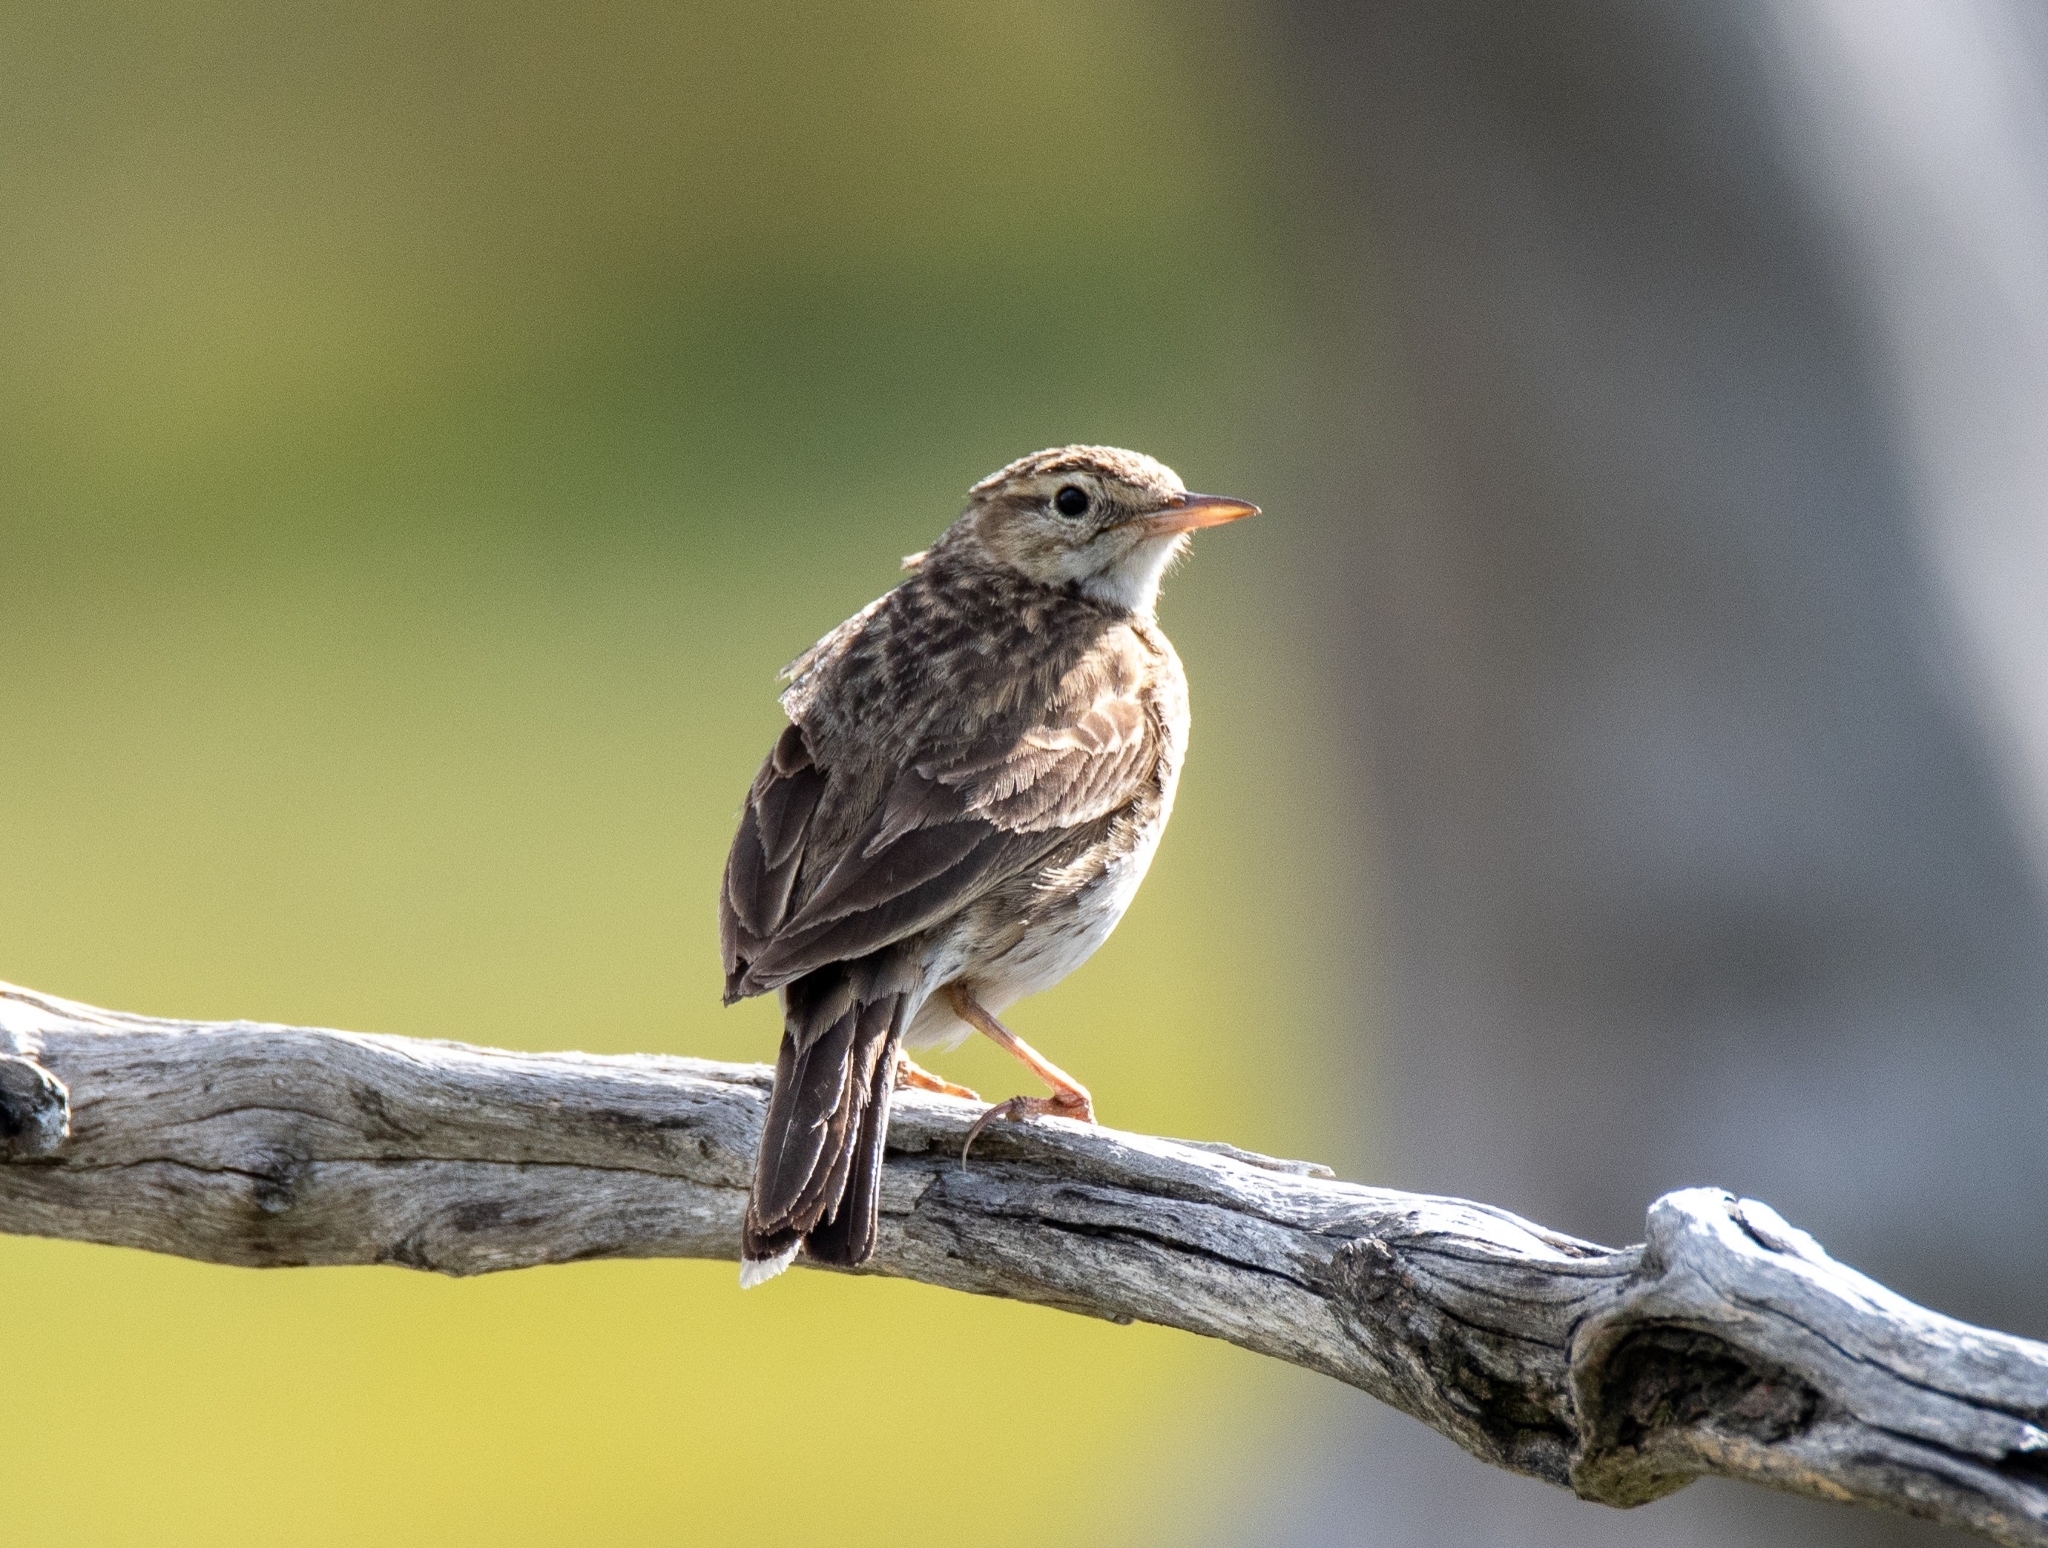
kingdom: Animalia
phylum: Chordata
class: Aves
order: Passeriformes
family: Motacillidae
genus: Anthus
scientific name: Anthus australis
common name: Australian pipit
